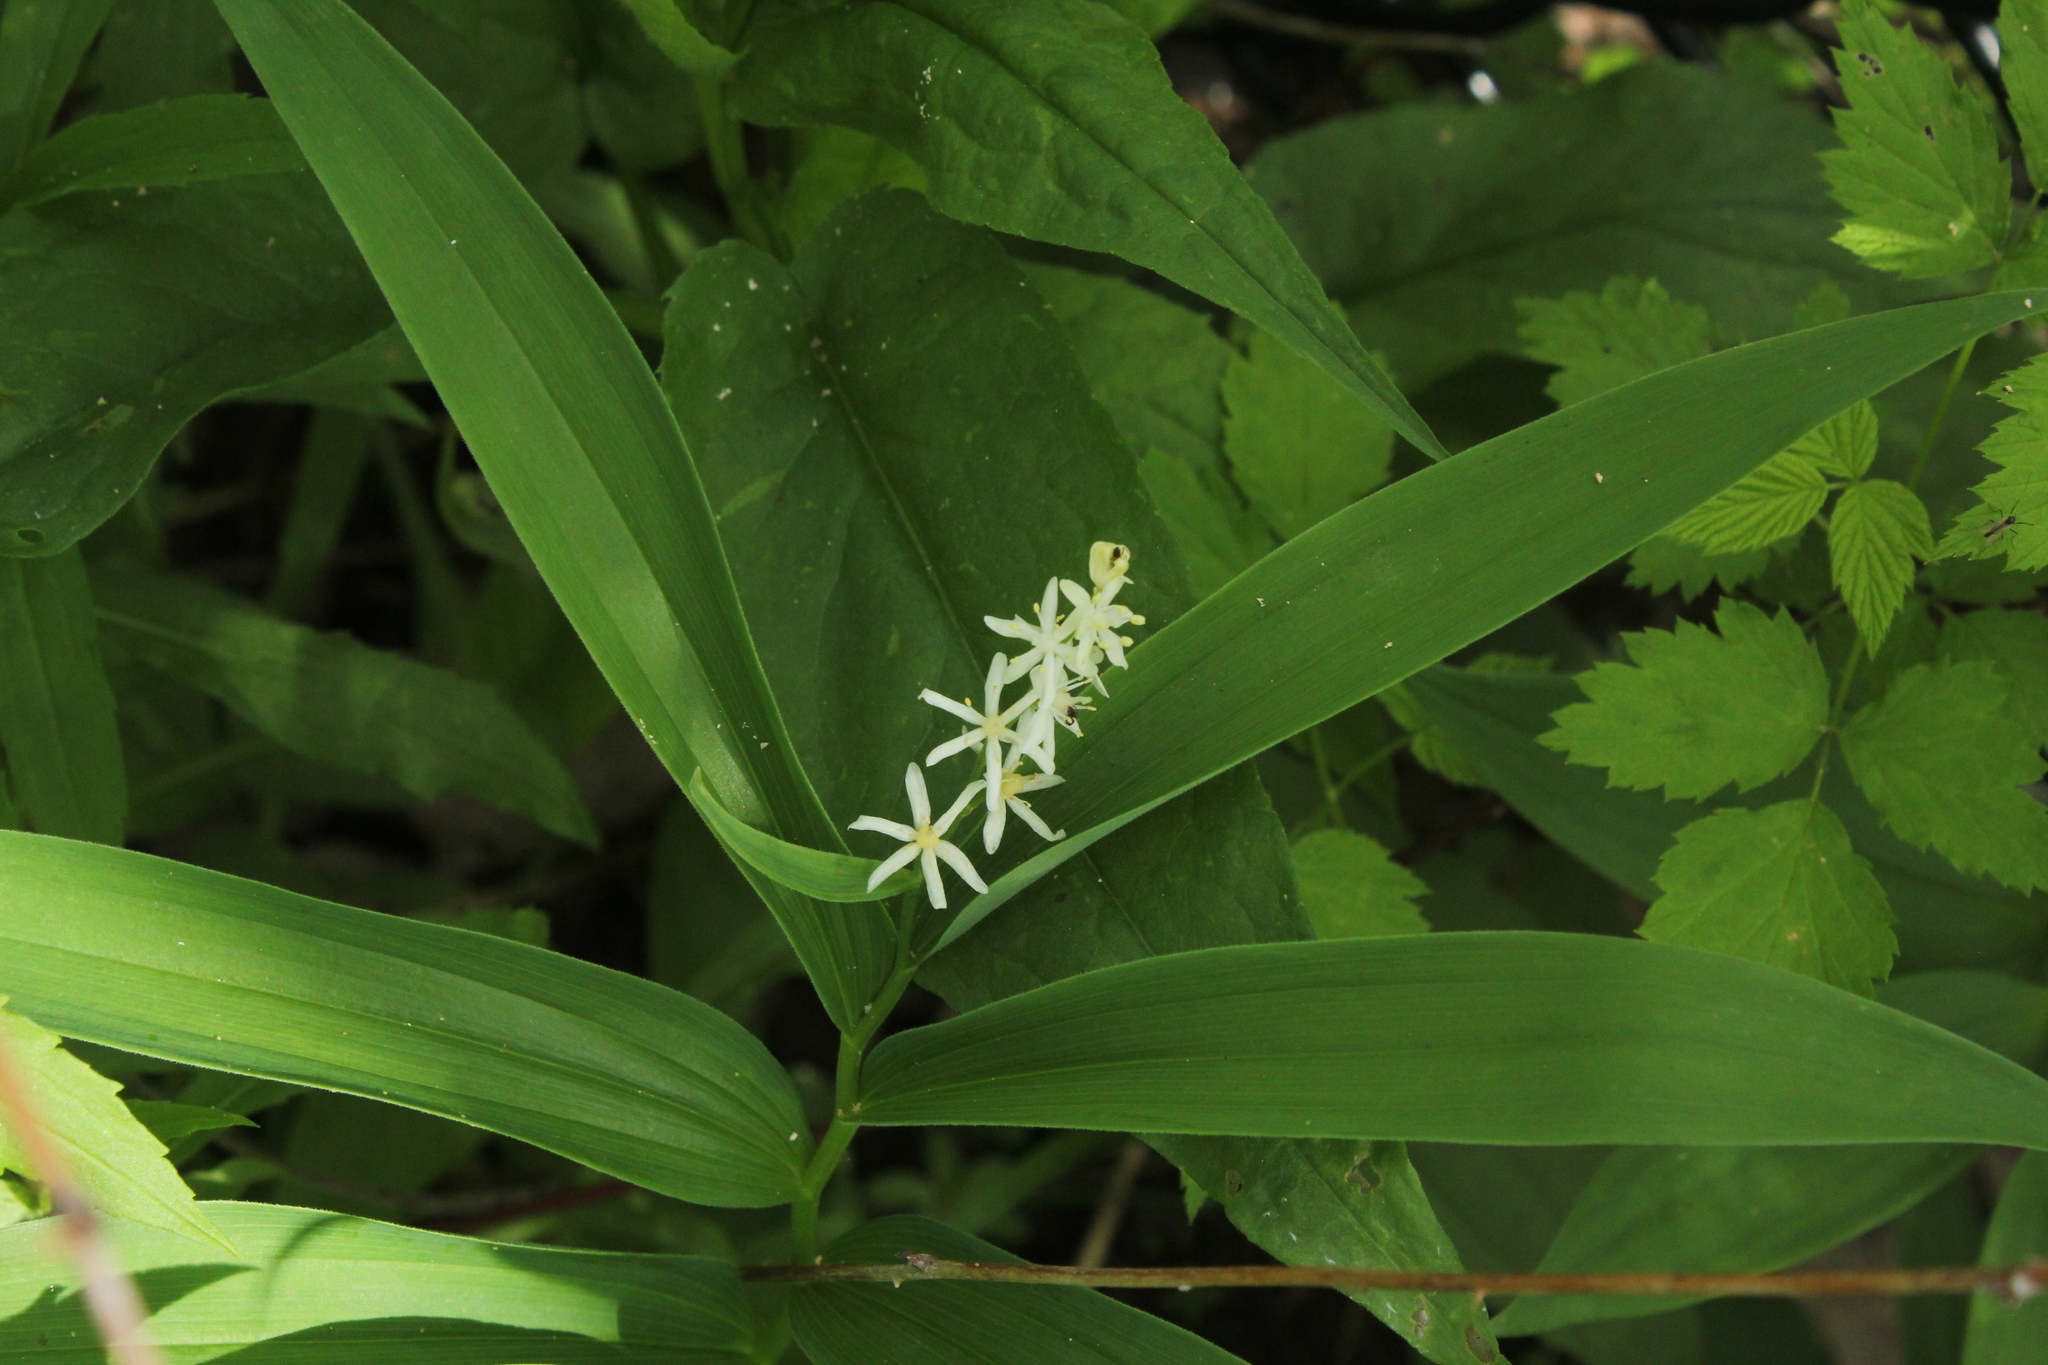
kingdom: Plantae
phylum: Tracheophyta
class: Liliopsida
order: Asparagales
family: Asparagaceae
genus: Maianthemum
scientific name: Maianthemum stellatum
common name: Little false solomon's seal
